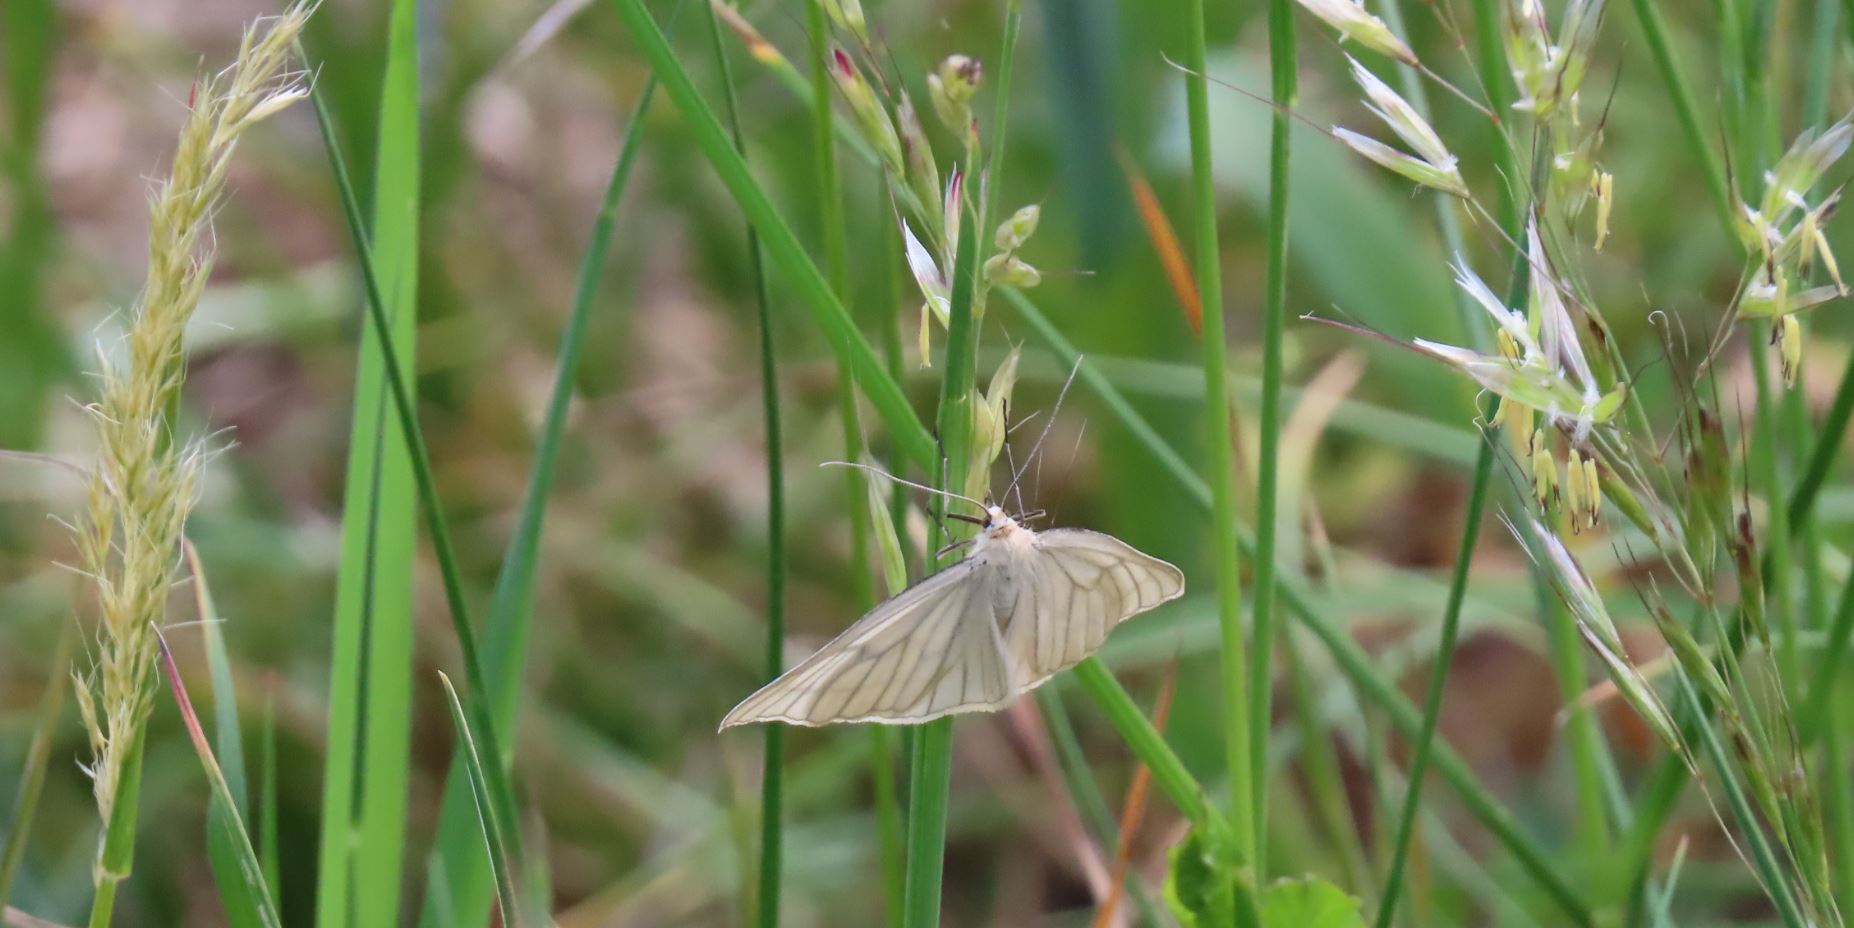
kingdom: Animalia
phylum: Arthropoda
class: Insecta
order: Lepidoptera
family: Geometridae
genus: Siona
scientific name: Siona lineata
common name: Black-veined moth
